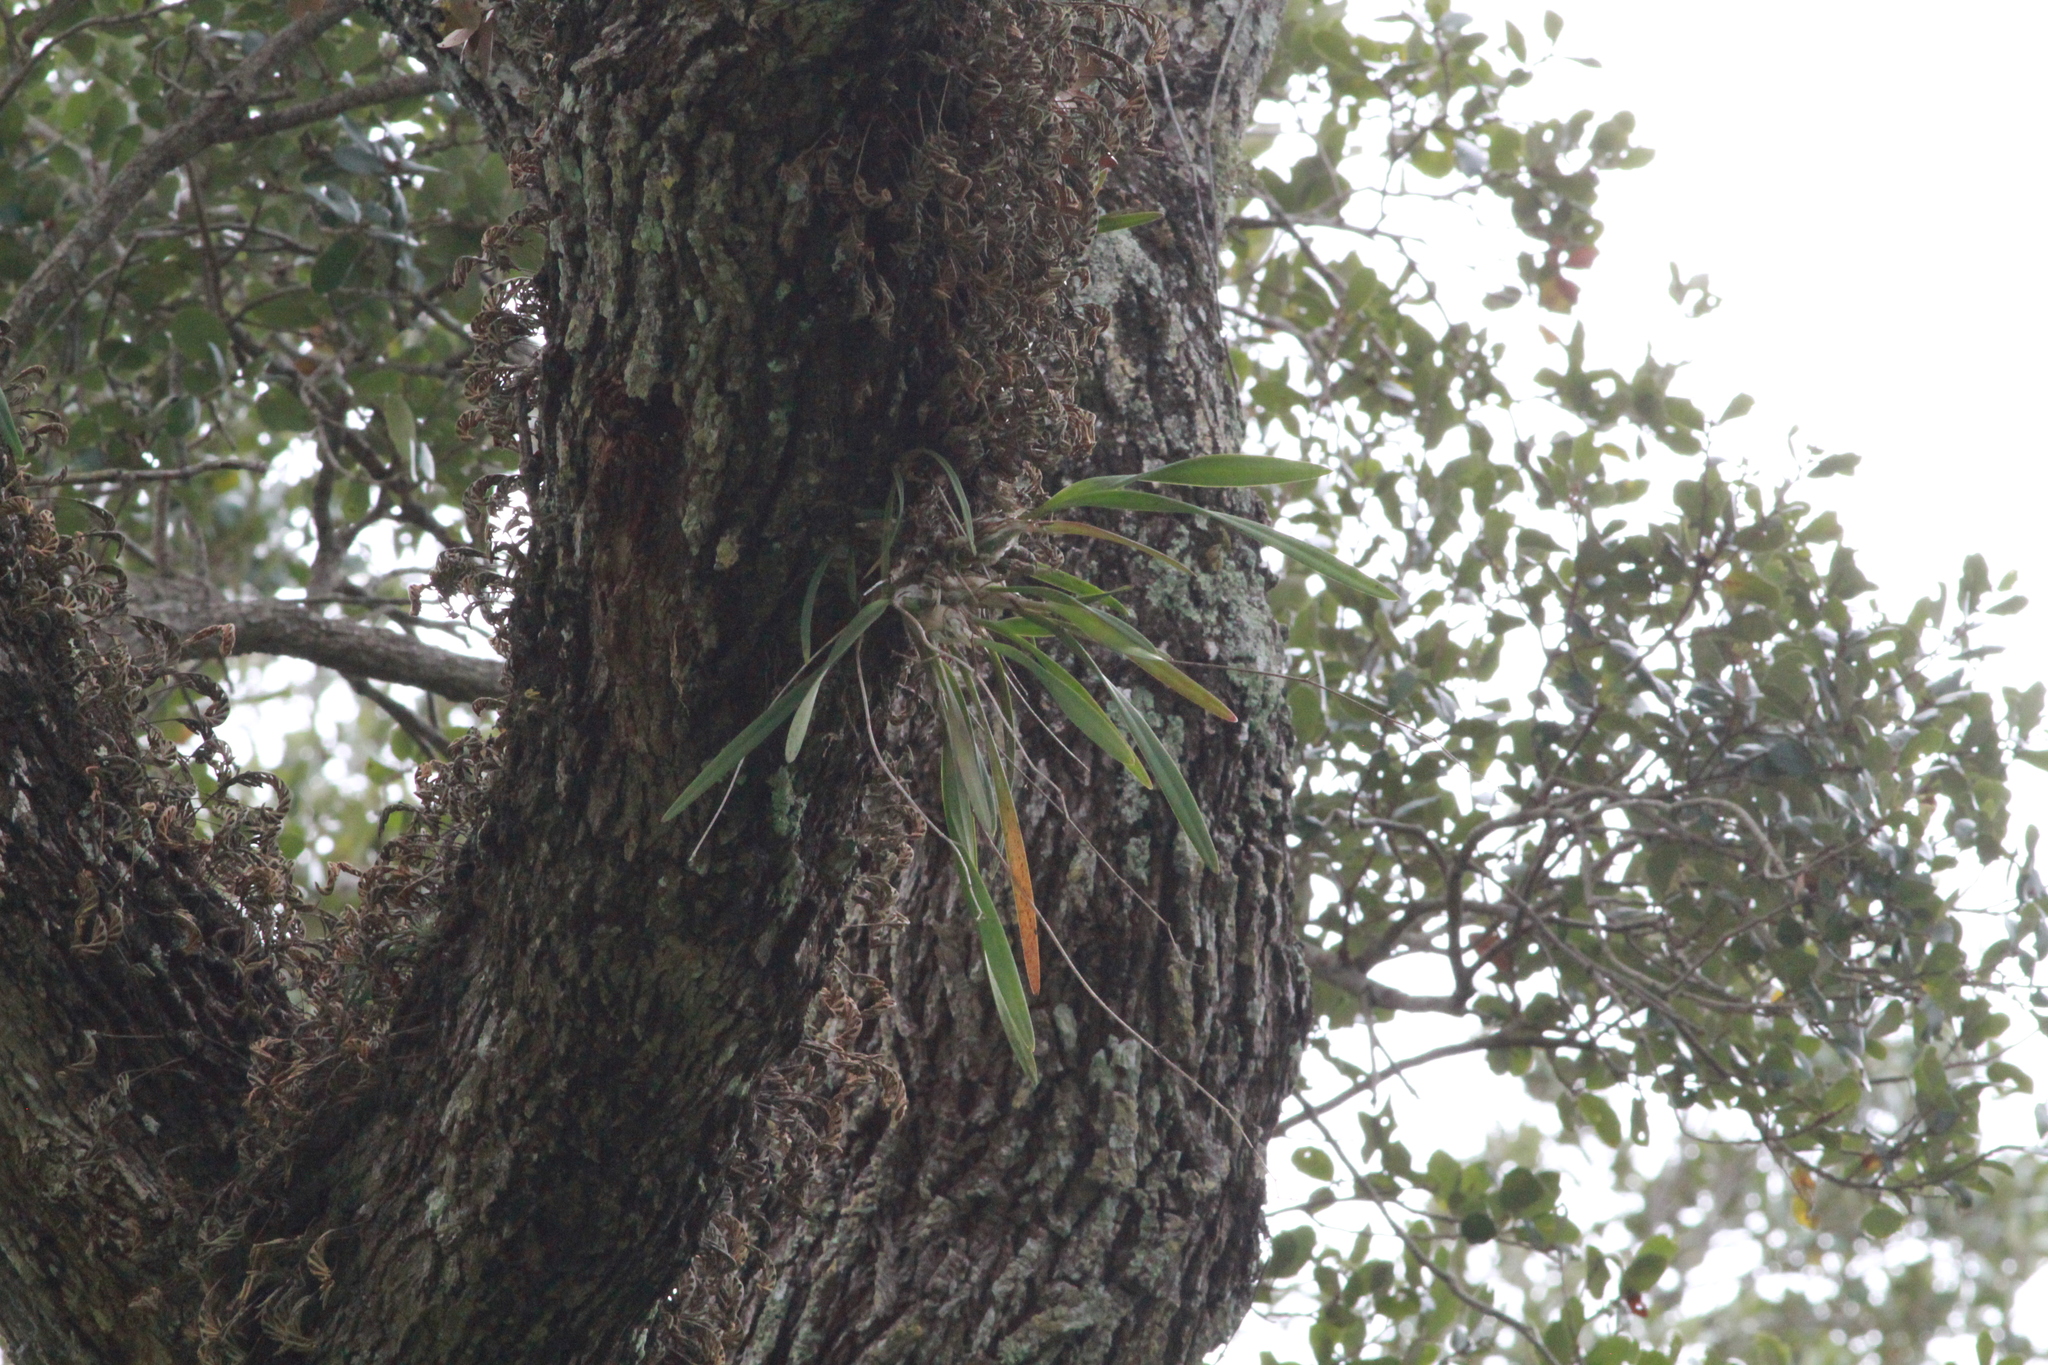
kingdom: Plantae
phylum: Tracheophyta
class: Liliopsida
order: Asparagales
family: Orchidaceae
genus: Encyclia
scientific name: Encyclia tampensis
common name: Florida butterfly orchid
